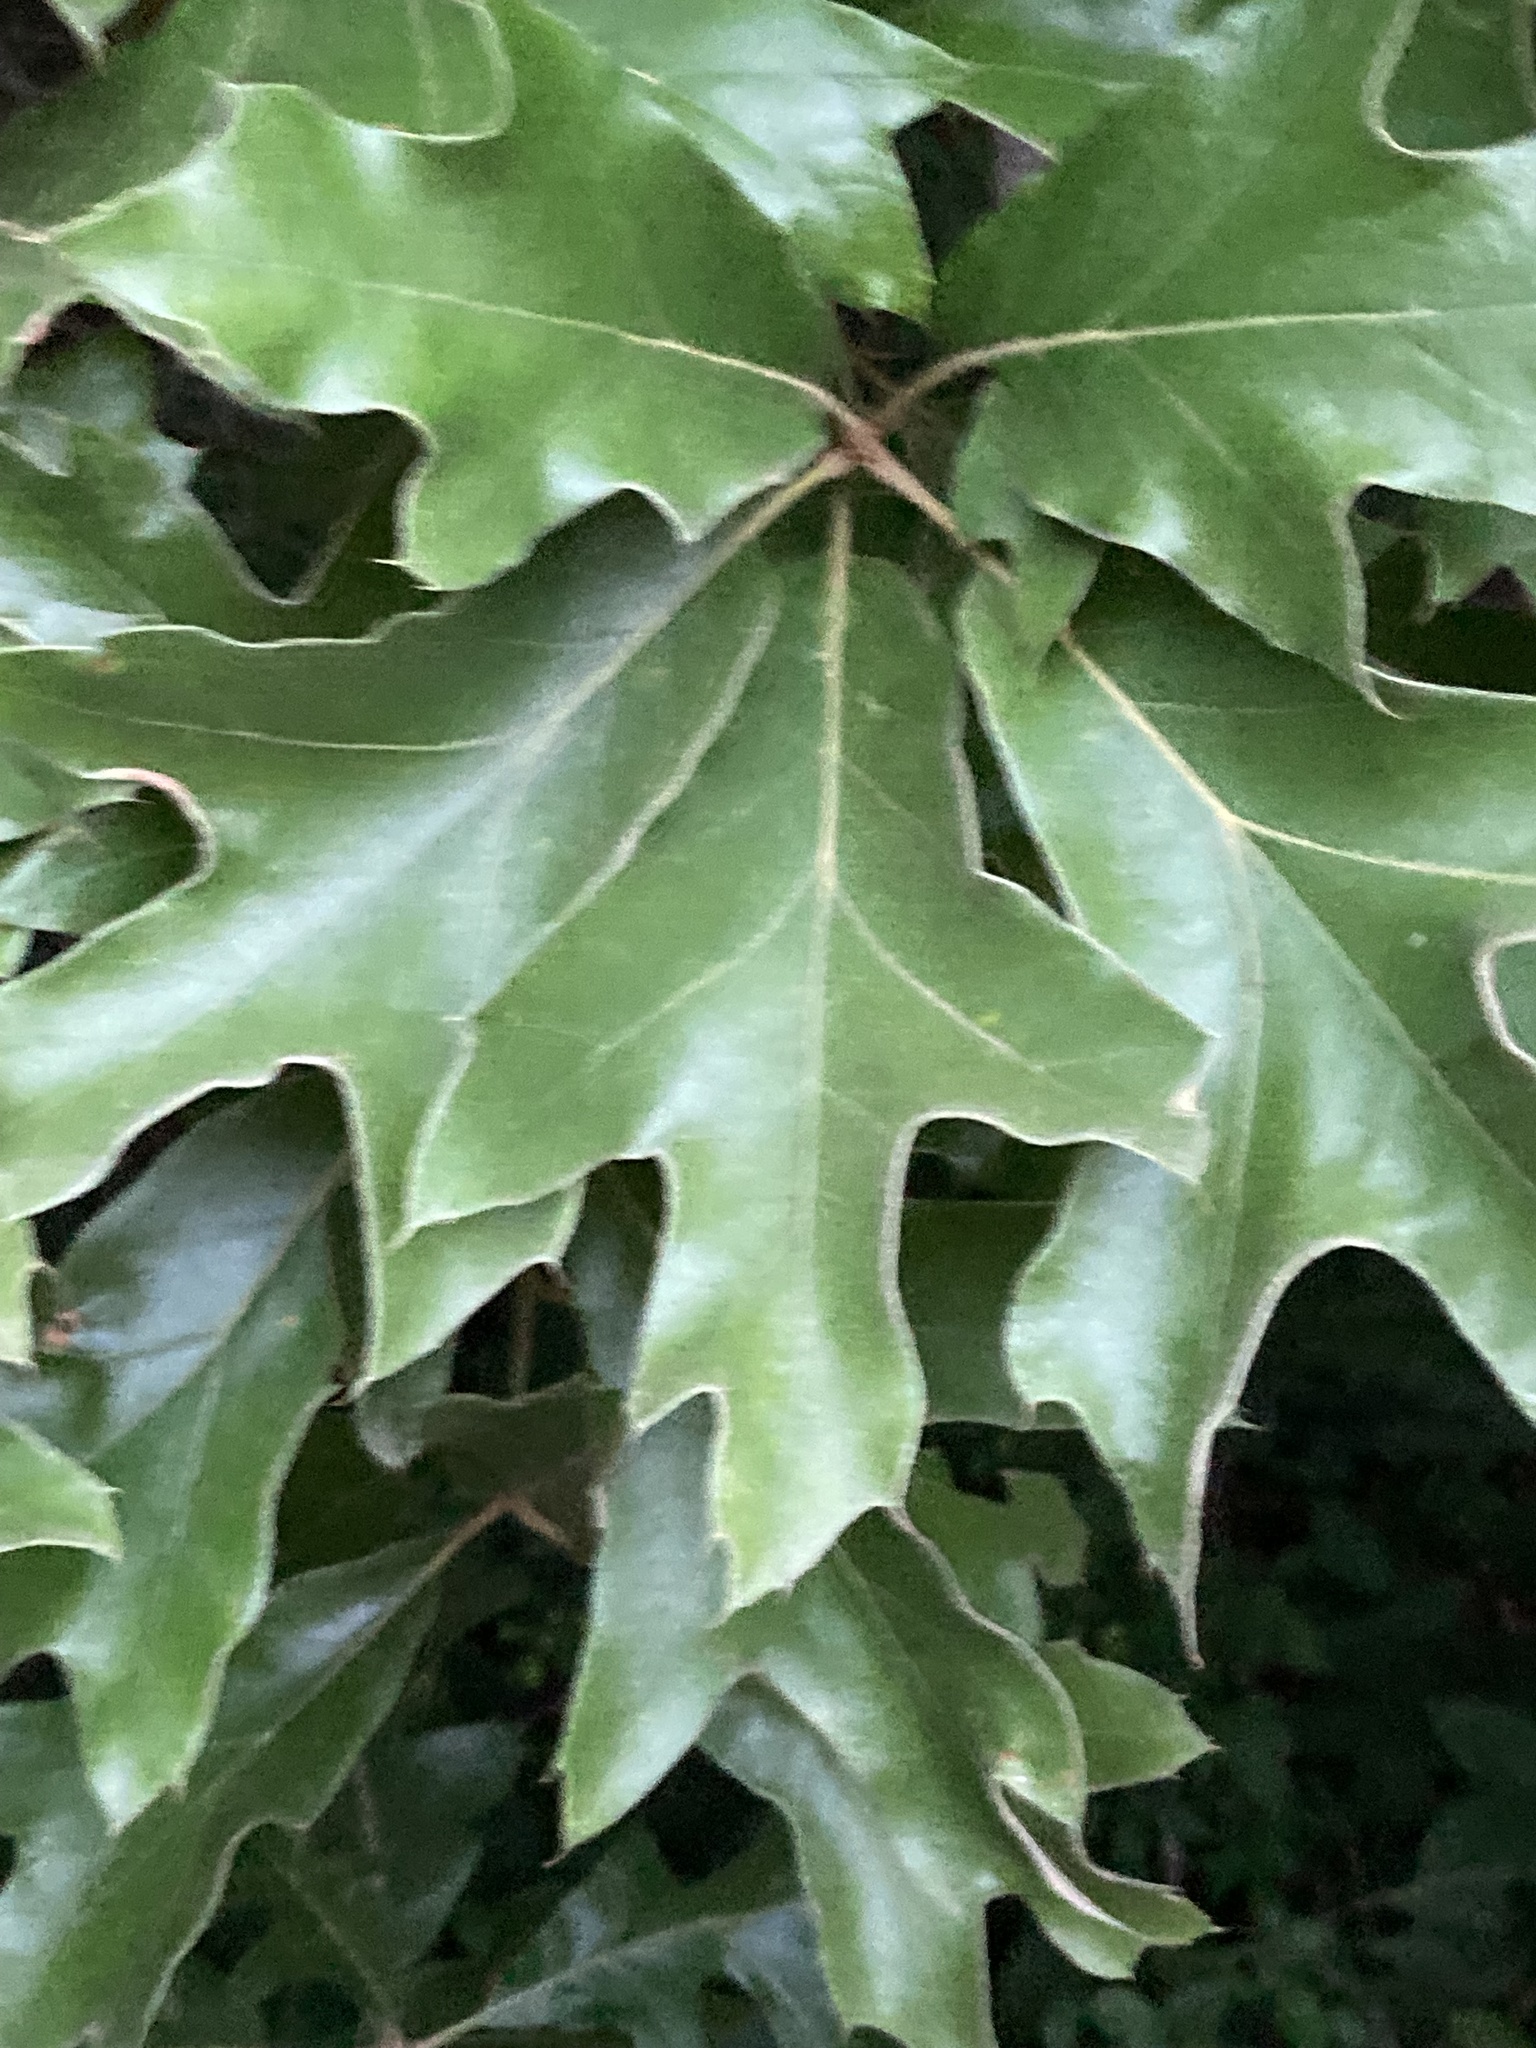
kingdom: Plantae
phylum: Tracheophyta
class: Magnoliopsida
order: Fagales
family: Fagaceae
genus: Quercus
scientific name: Quercus falcata
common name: Southern red oak
